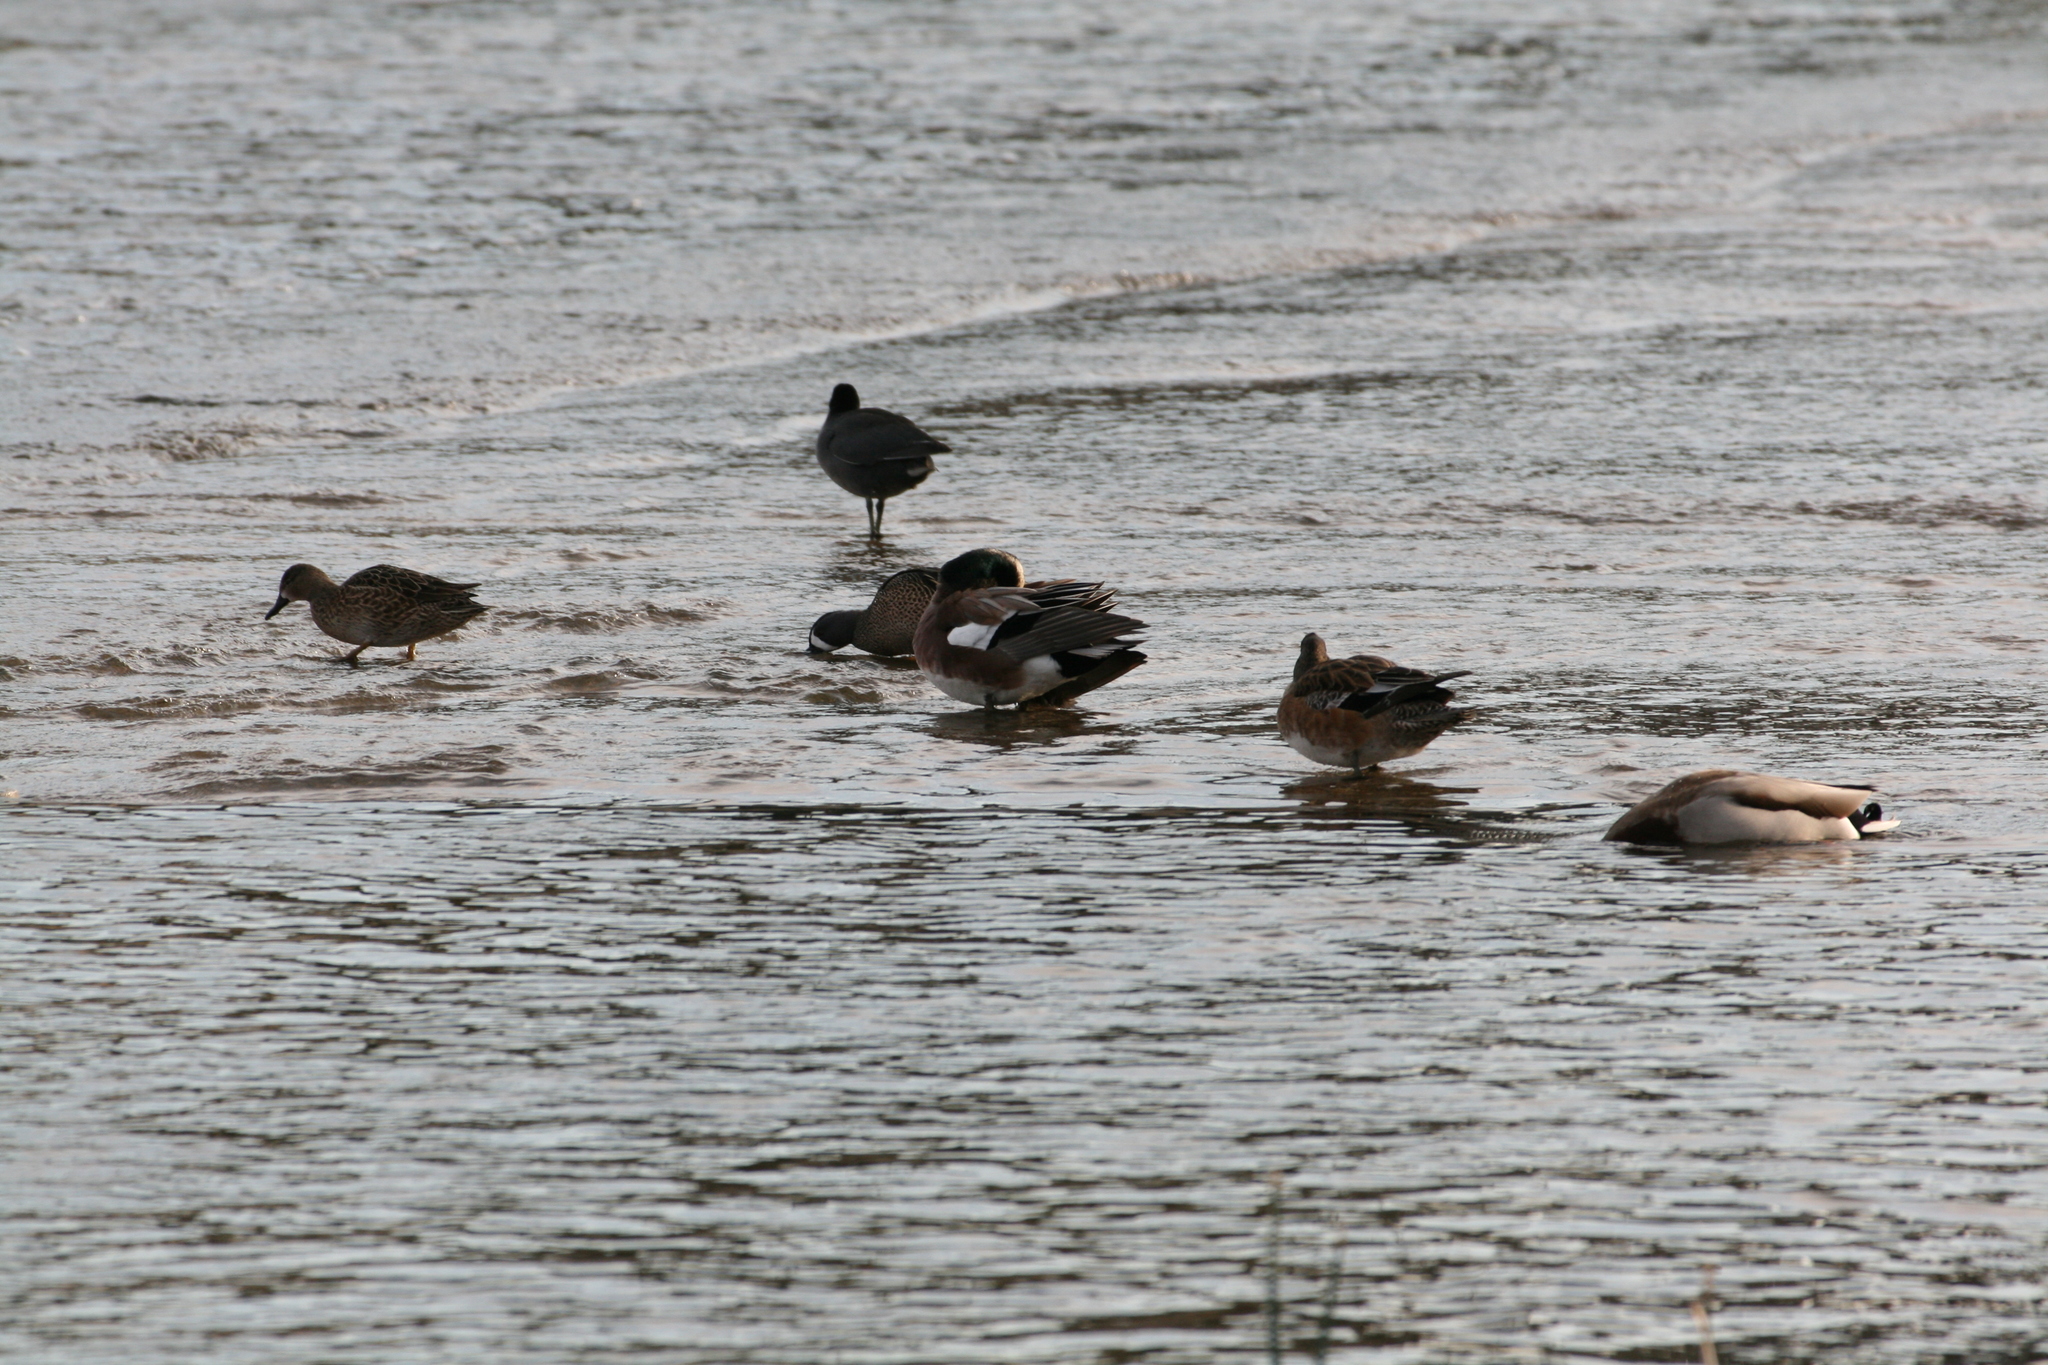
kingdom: Animalia
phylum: Chordata
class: Aves
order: Anseriformes
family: Anatidae
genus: Spatula
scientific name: Spatula discors
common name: Blue-winged teal
